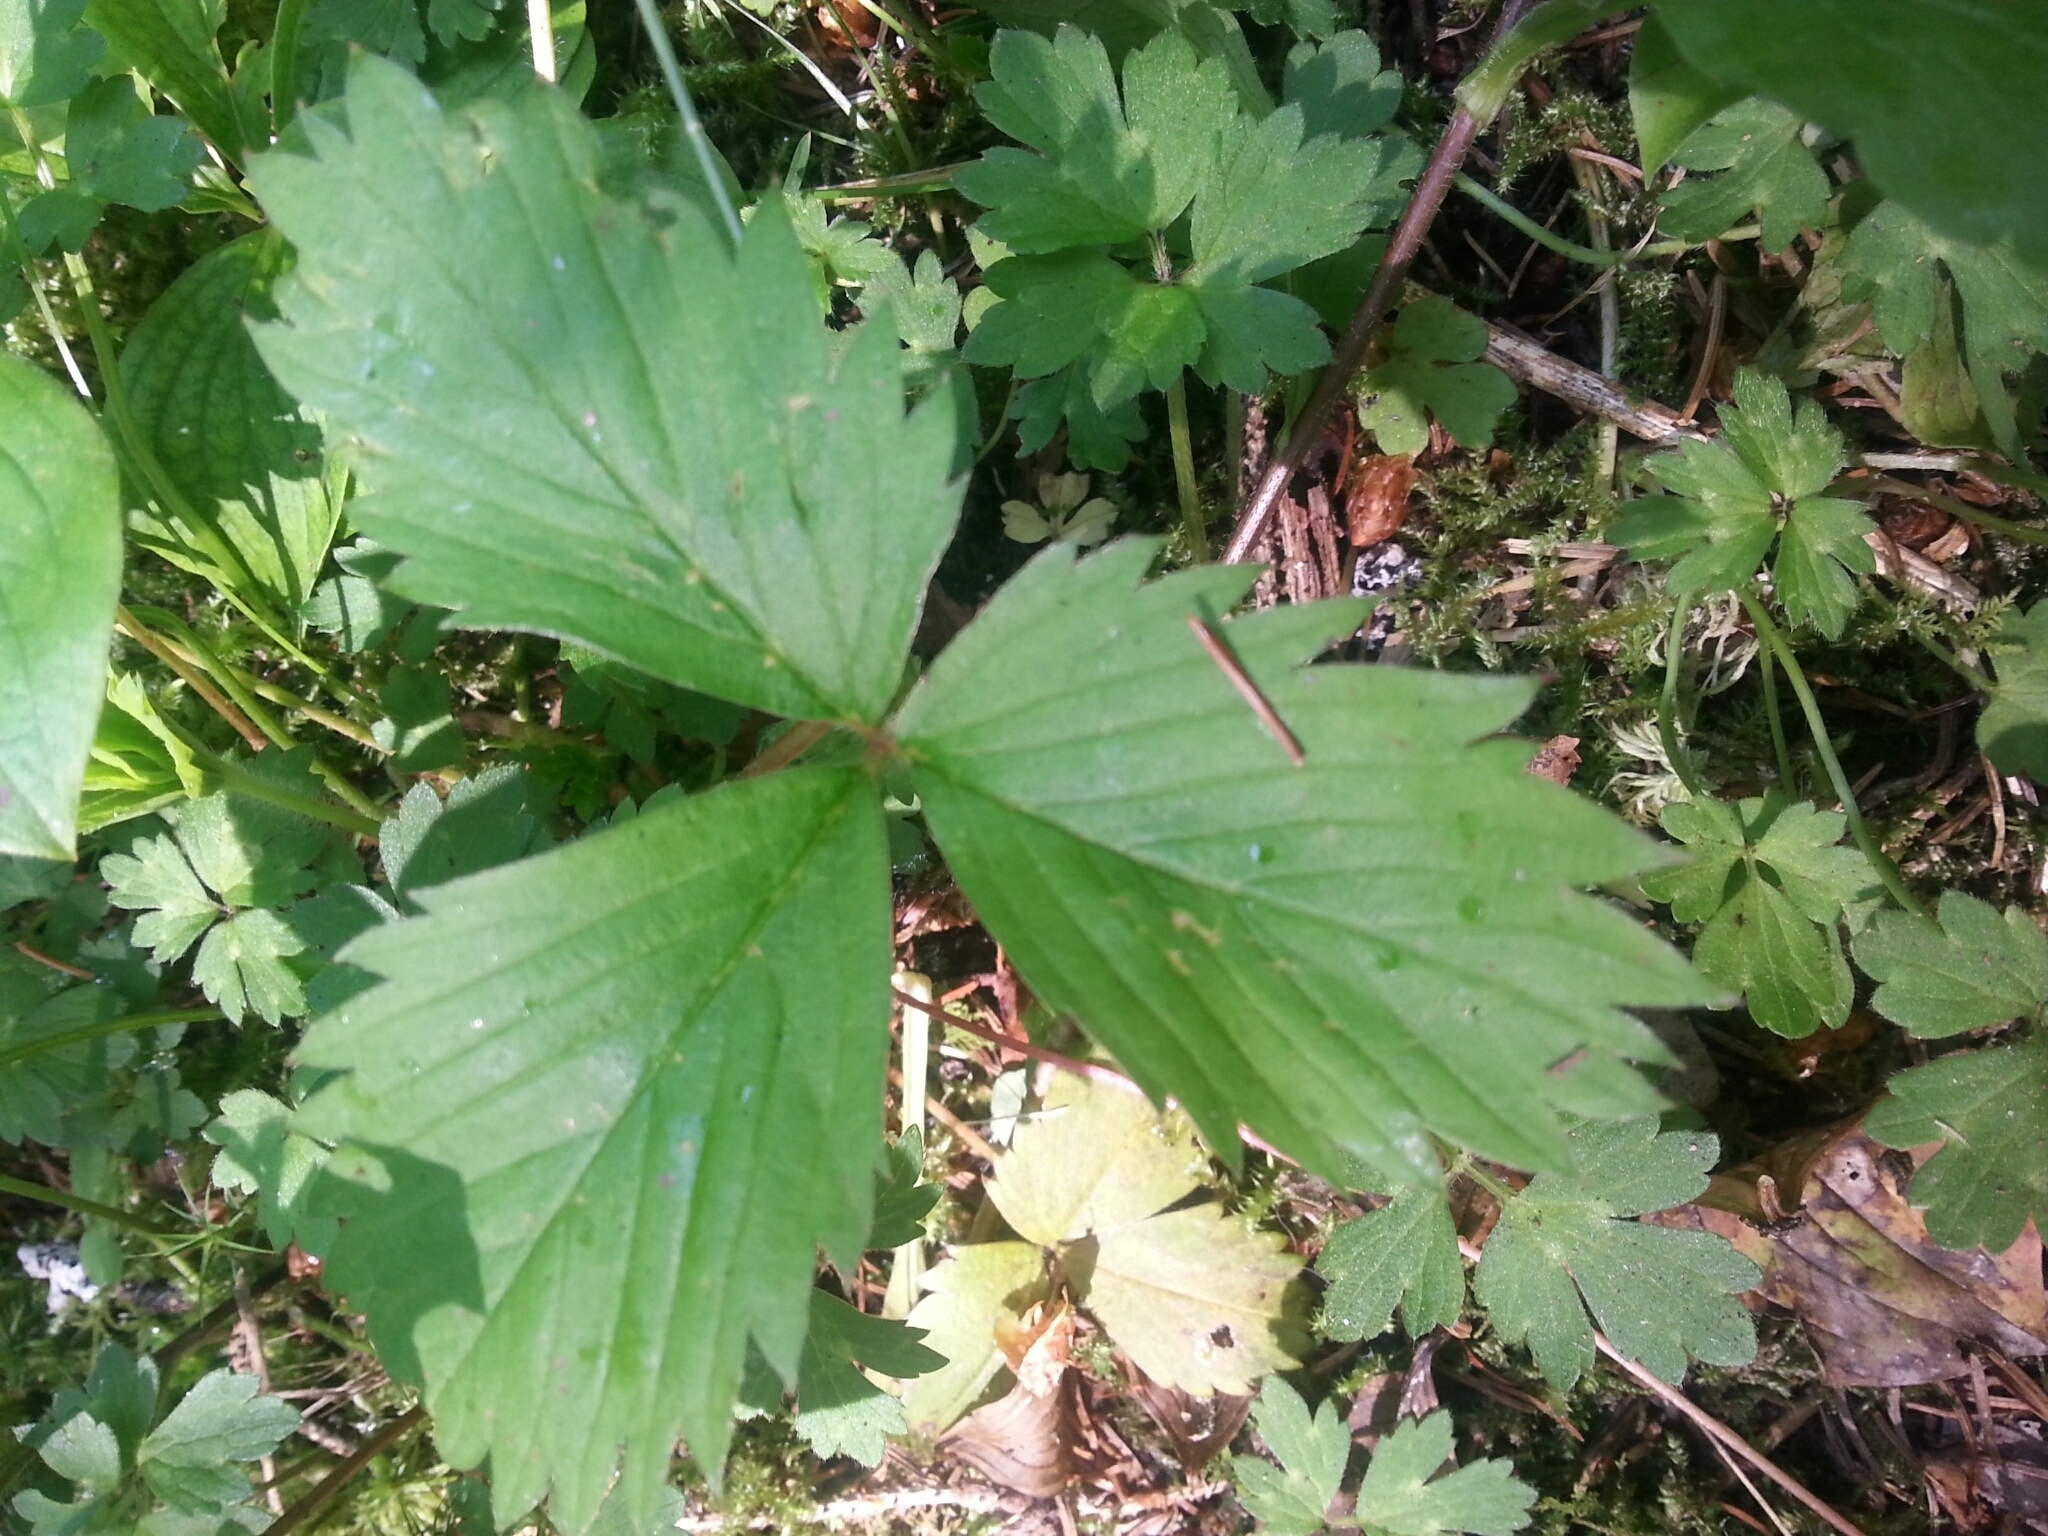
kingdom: Plantae
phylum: Tracheophyta
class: Magnoliopsida
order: Rosales
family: Rosaceae
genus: Fragaria
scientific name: Fragaria virginiana
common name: Thickleaved wild strawberry
